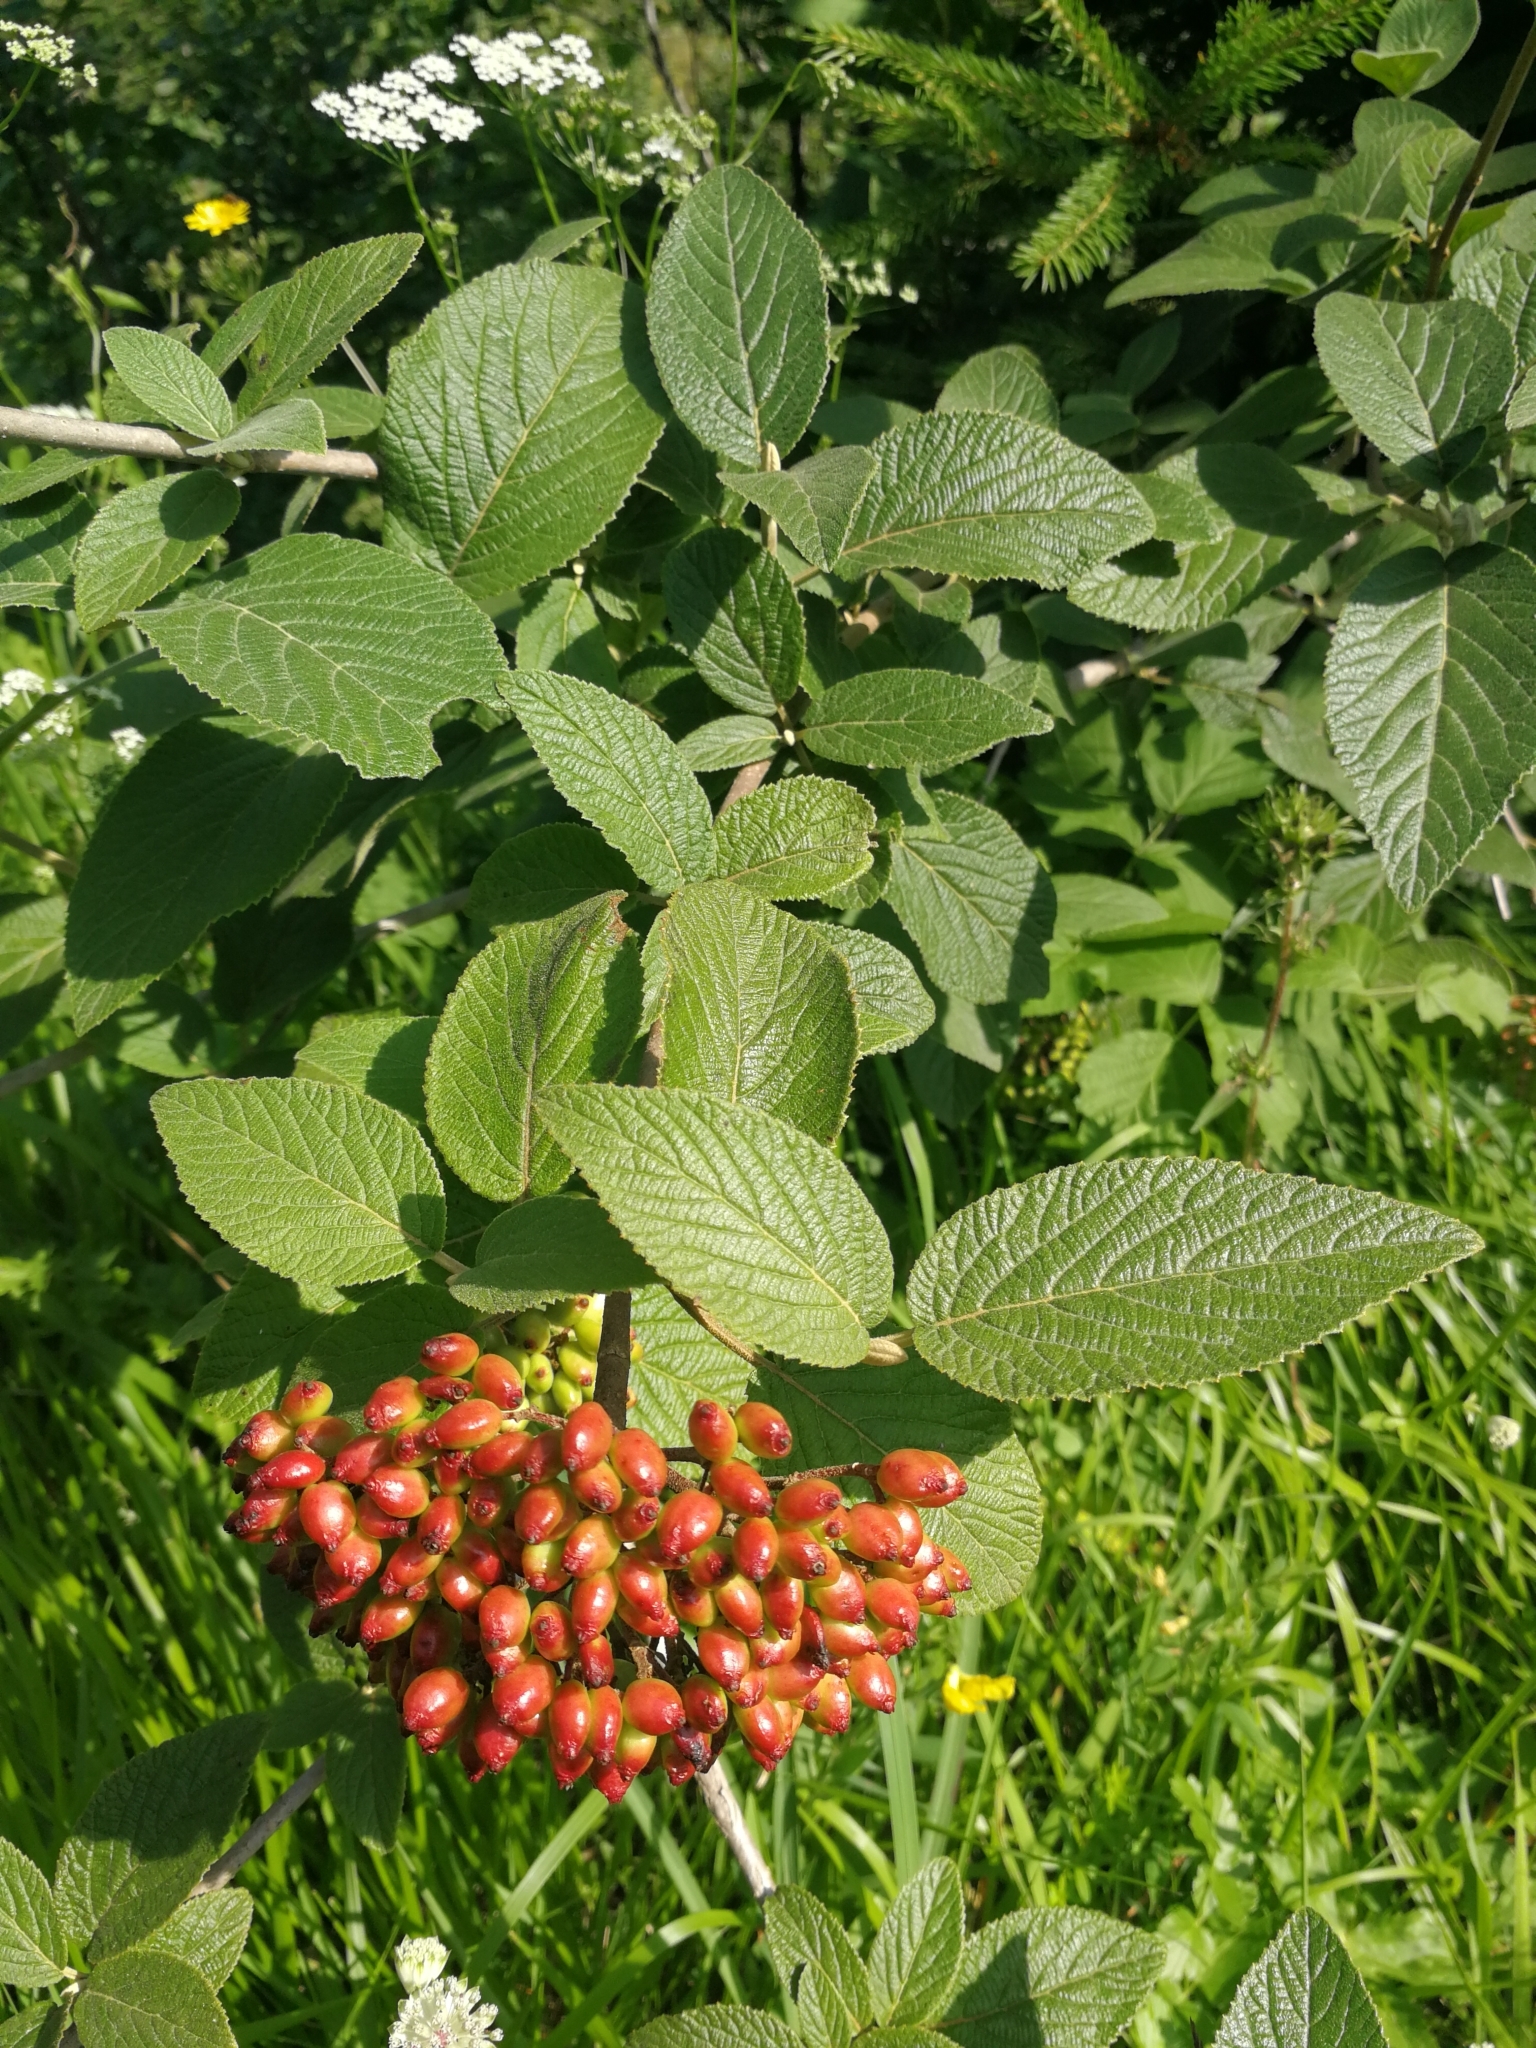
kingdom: Plantae
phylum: Tracheophyta
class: Magnoliopsida
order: Dipsacales
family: Viburnaceae
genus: Viburnum
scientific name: Viburnum lantana
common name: Wayfaring tree
